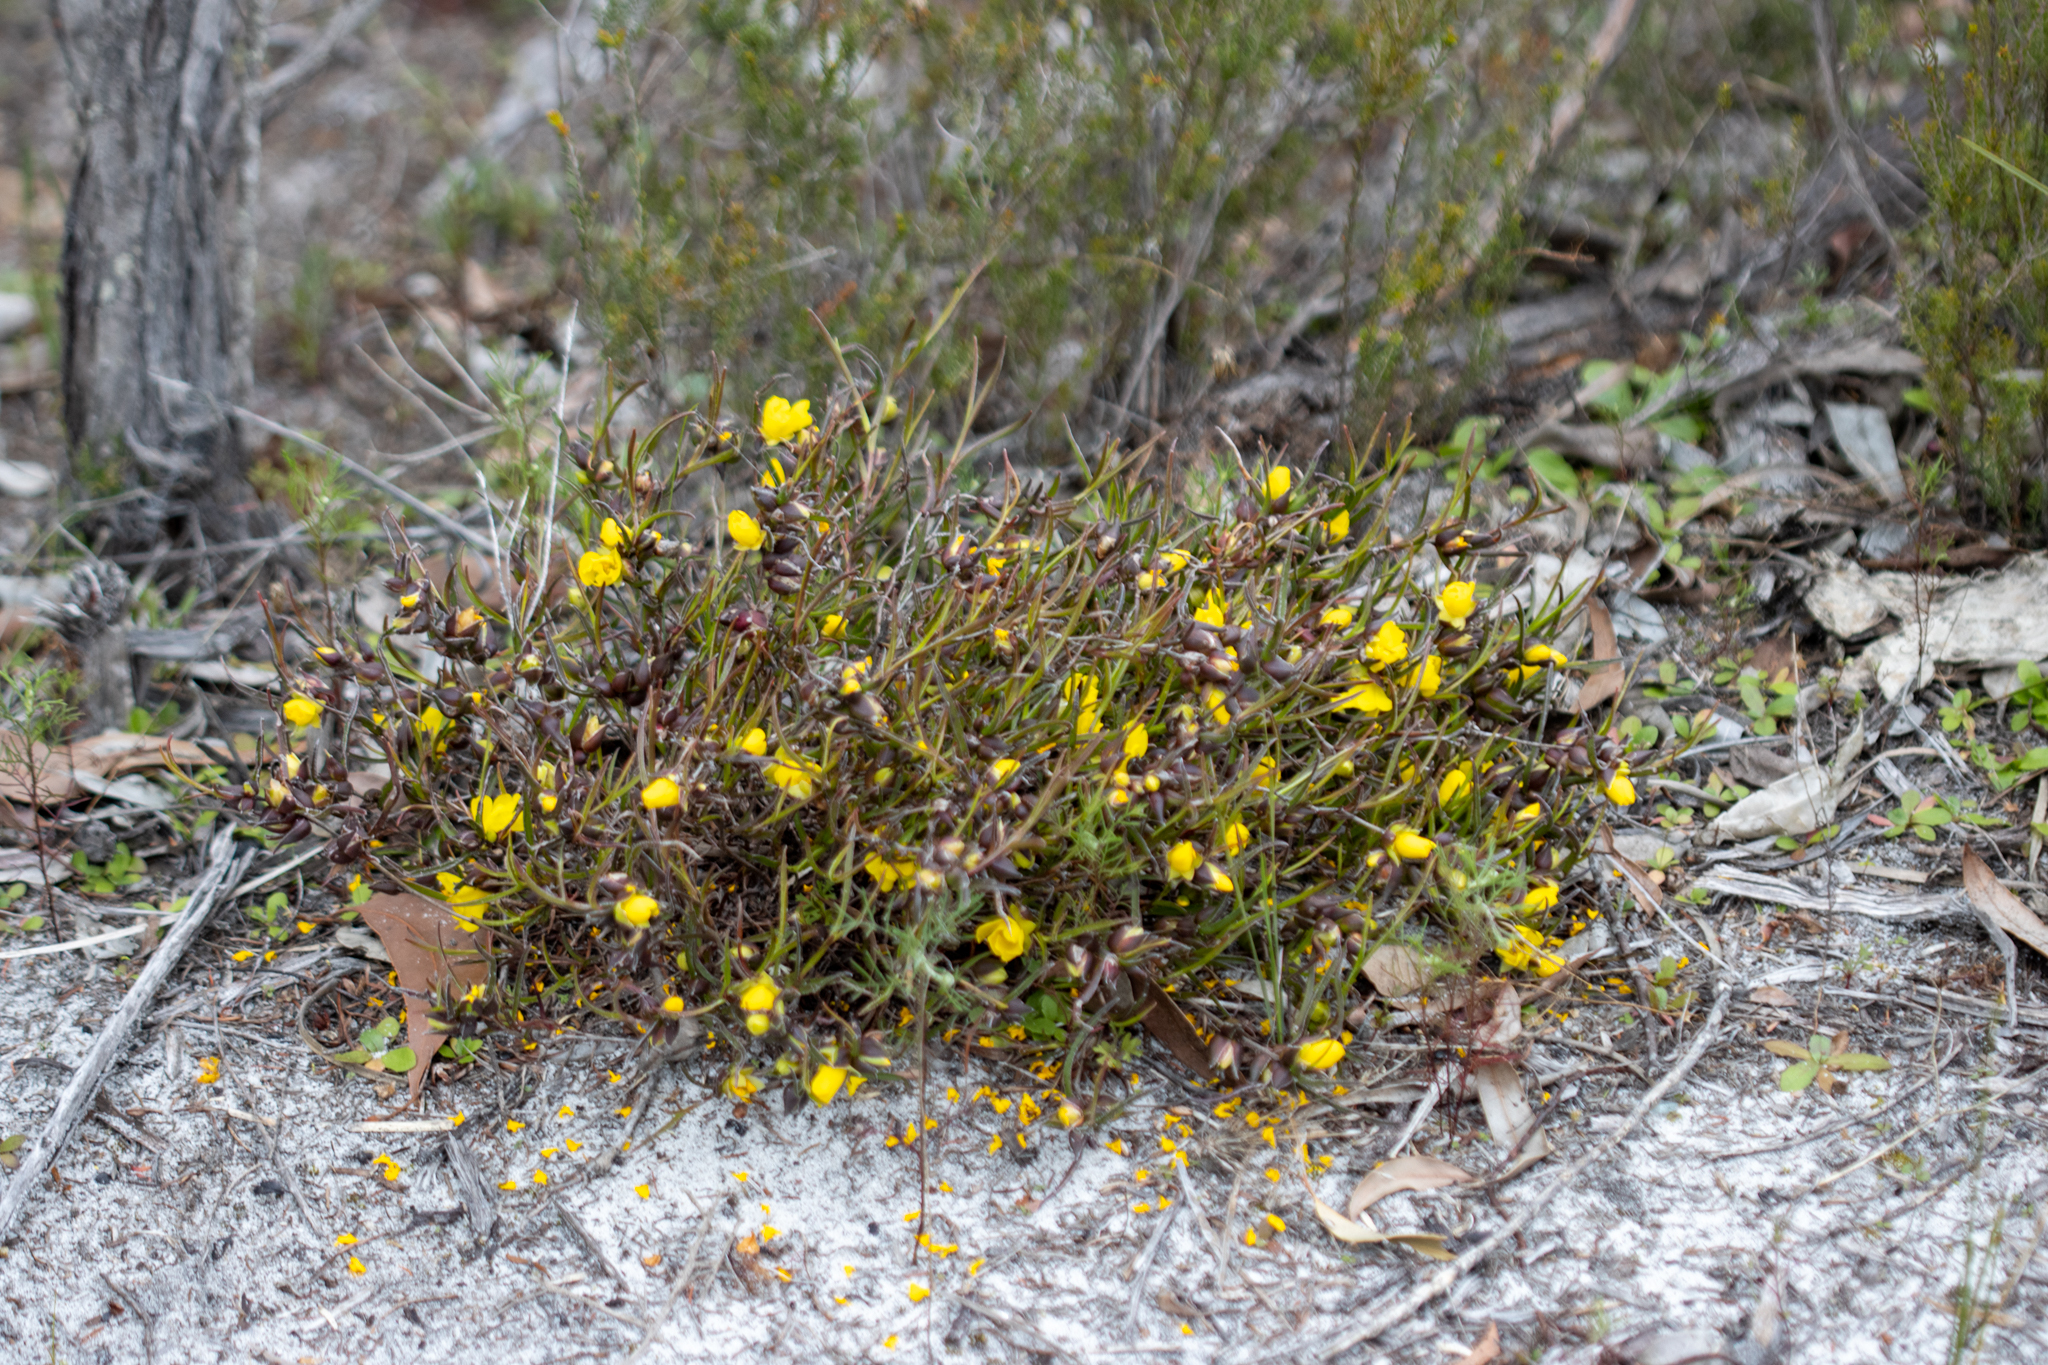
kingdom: Plantae
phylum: Tracheophyta
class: Magnoliopsida
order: Dilleniales
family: Dilleniaceae
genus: Hibbertia
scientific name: Hibbertia vaginata
